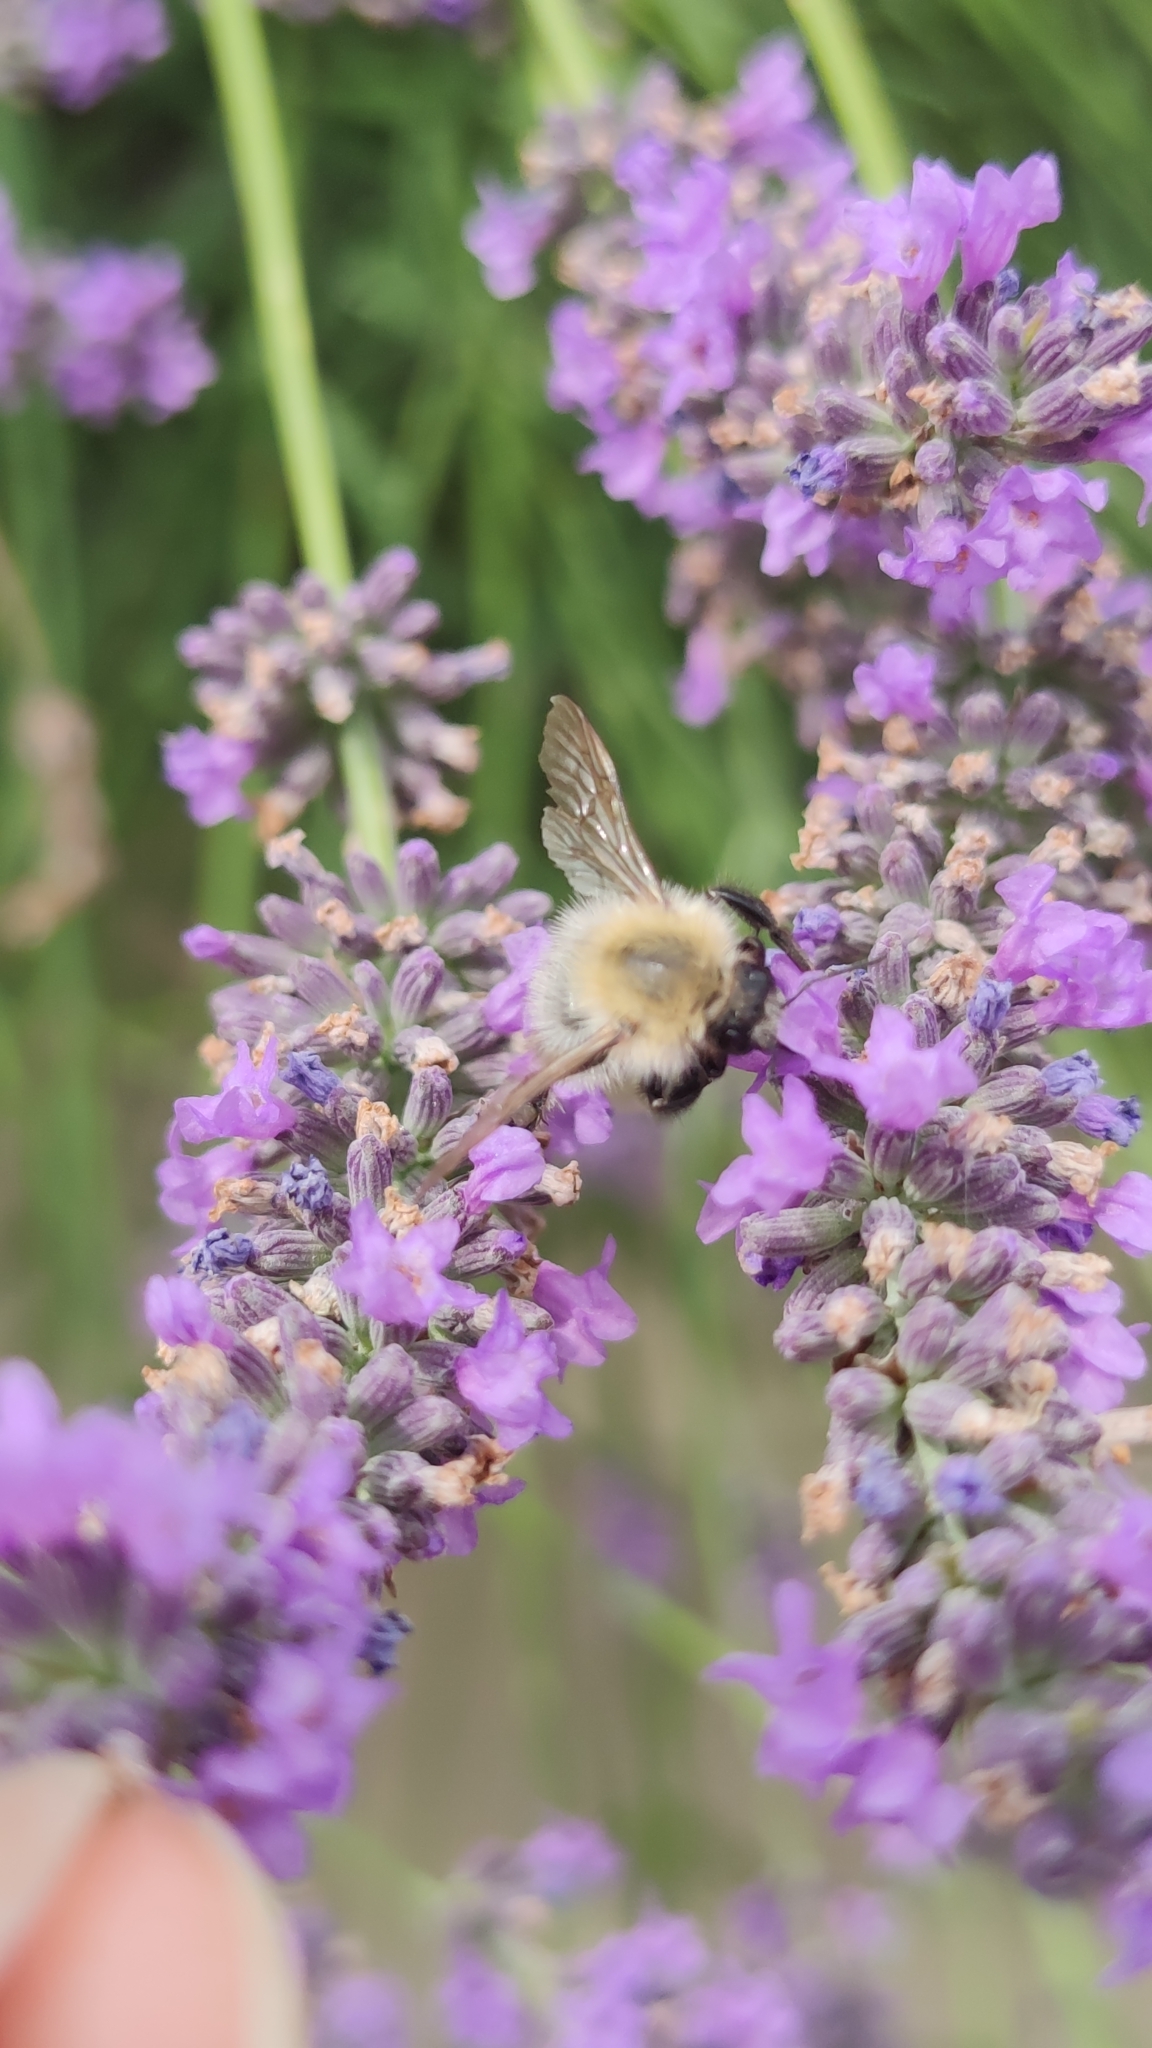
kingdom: Animalia
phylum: Arthropoda
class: Insecta
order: Hymenoptera
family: Apidae
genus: Bombus
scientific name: Bombus sylvarum
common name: Shrill carder bee
